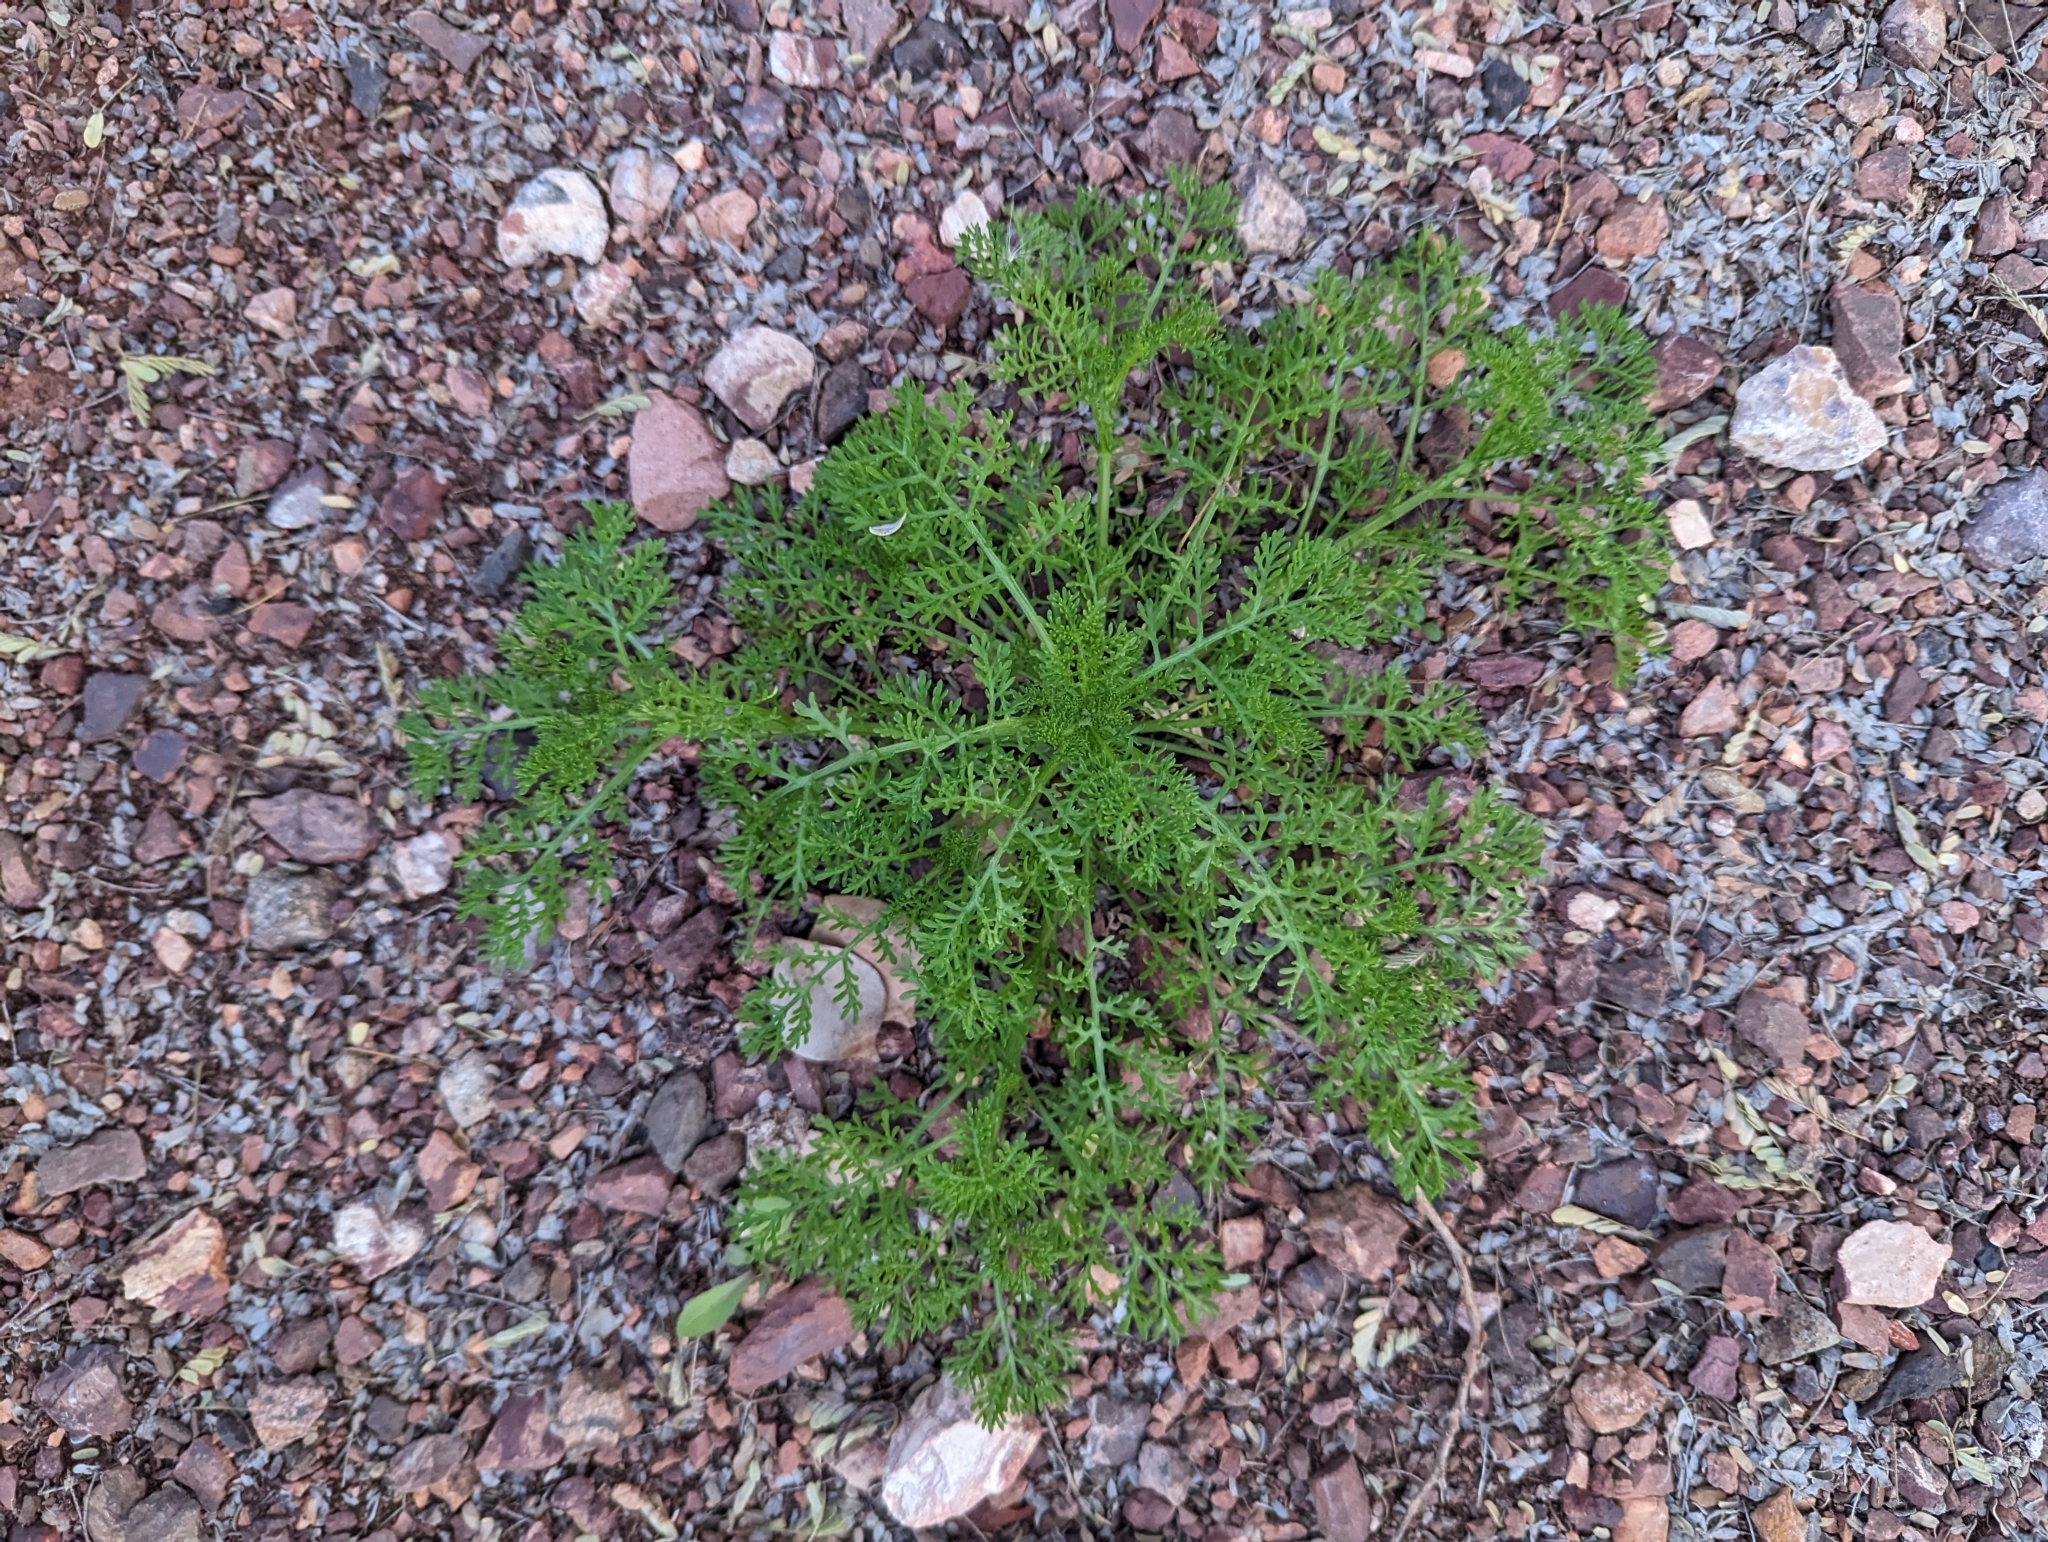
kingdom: Plantae
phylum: Tracheophyta
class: Magnoliopsida
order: Asterales
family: Asteraceae
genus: Oncosiphon
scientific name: Oncosiphon pilulifer
